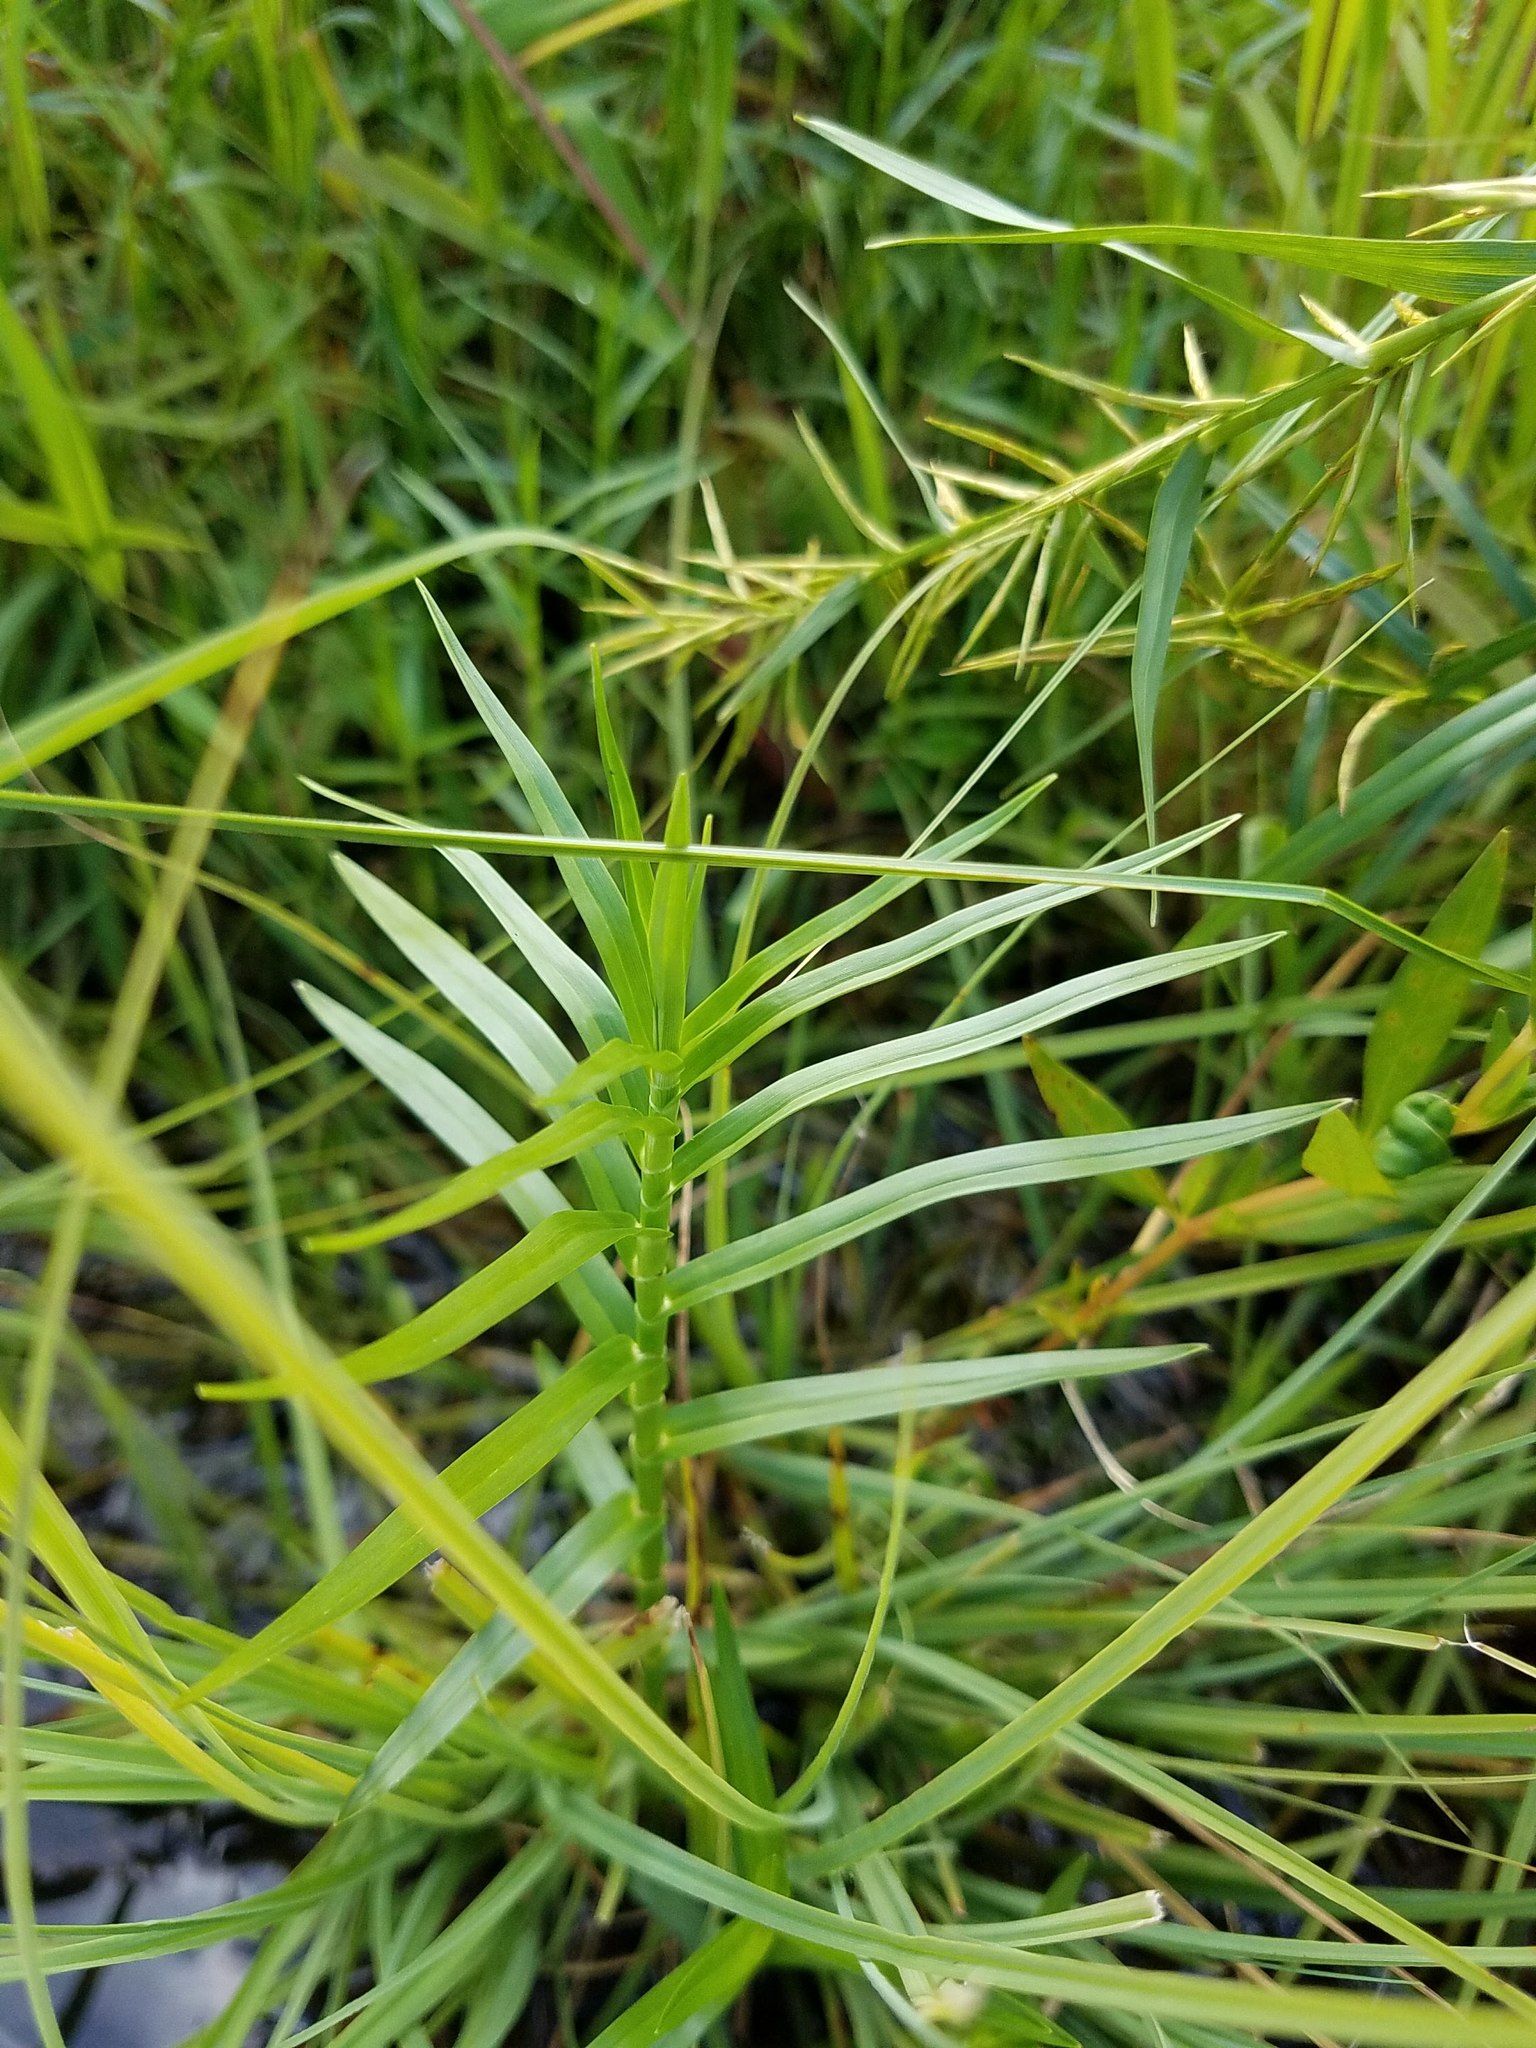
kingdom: Plantae
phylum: Tracheophyta
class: Liliopsida
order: Poales
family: Cyperaceae
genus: Dulichium
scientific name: Dulichium arundinaceum
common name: Three-way sedge
